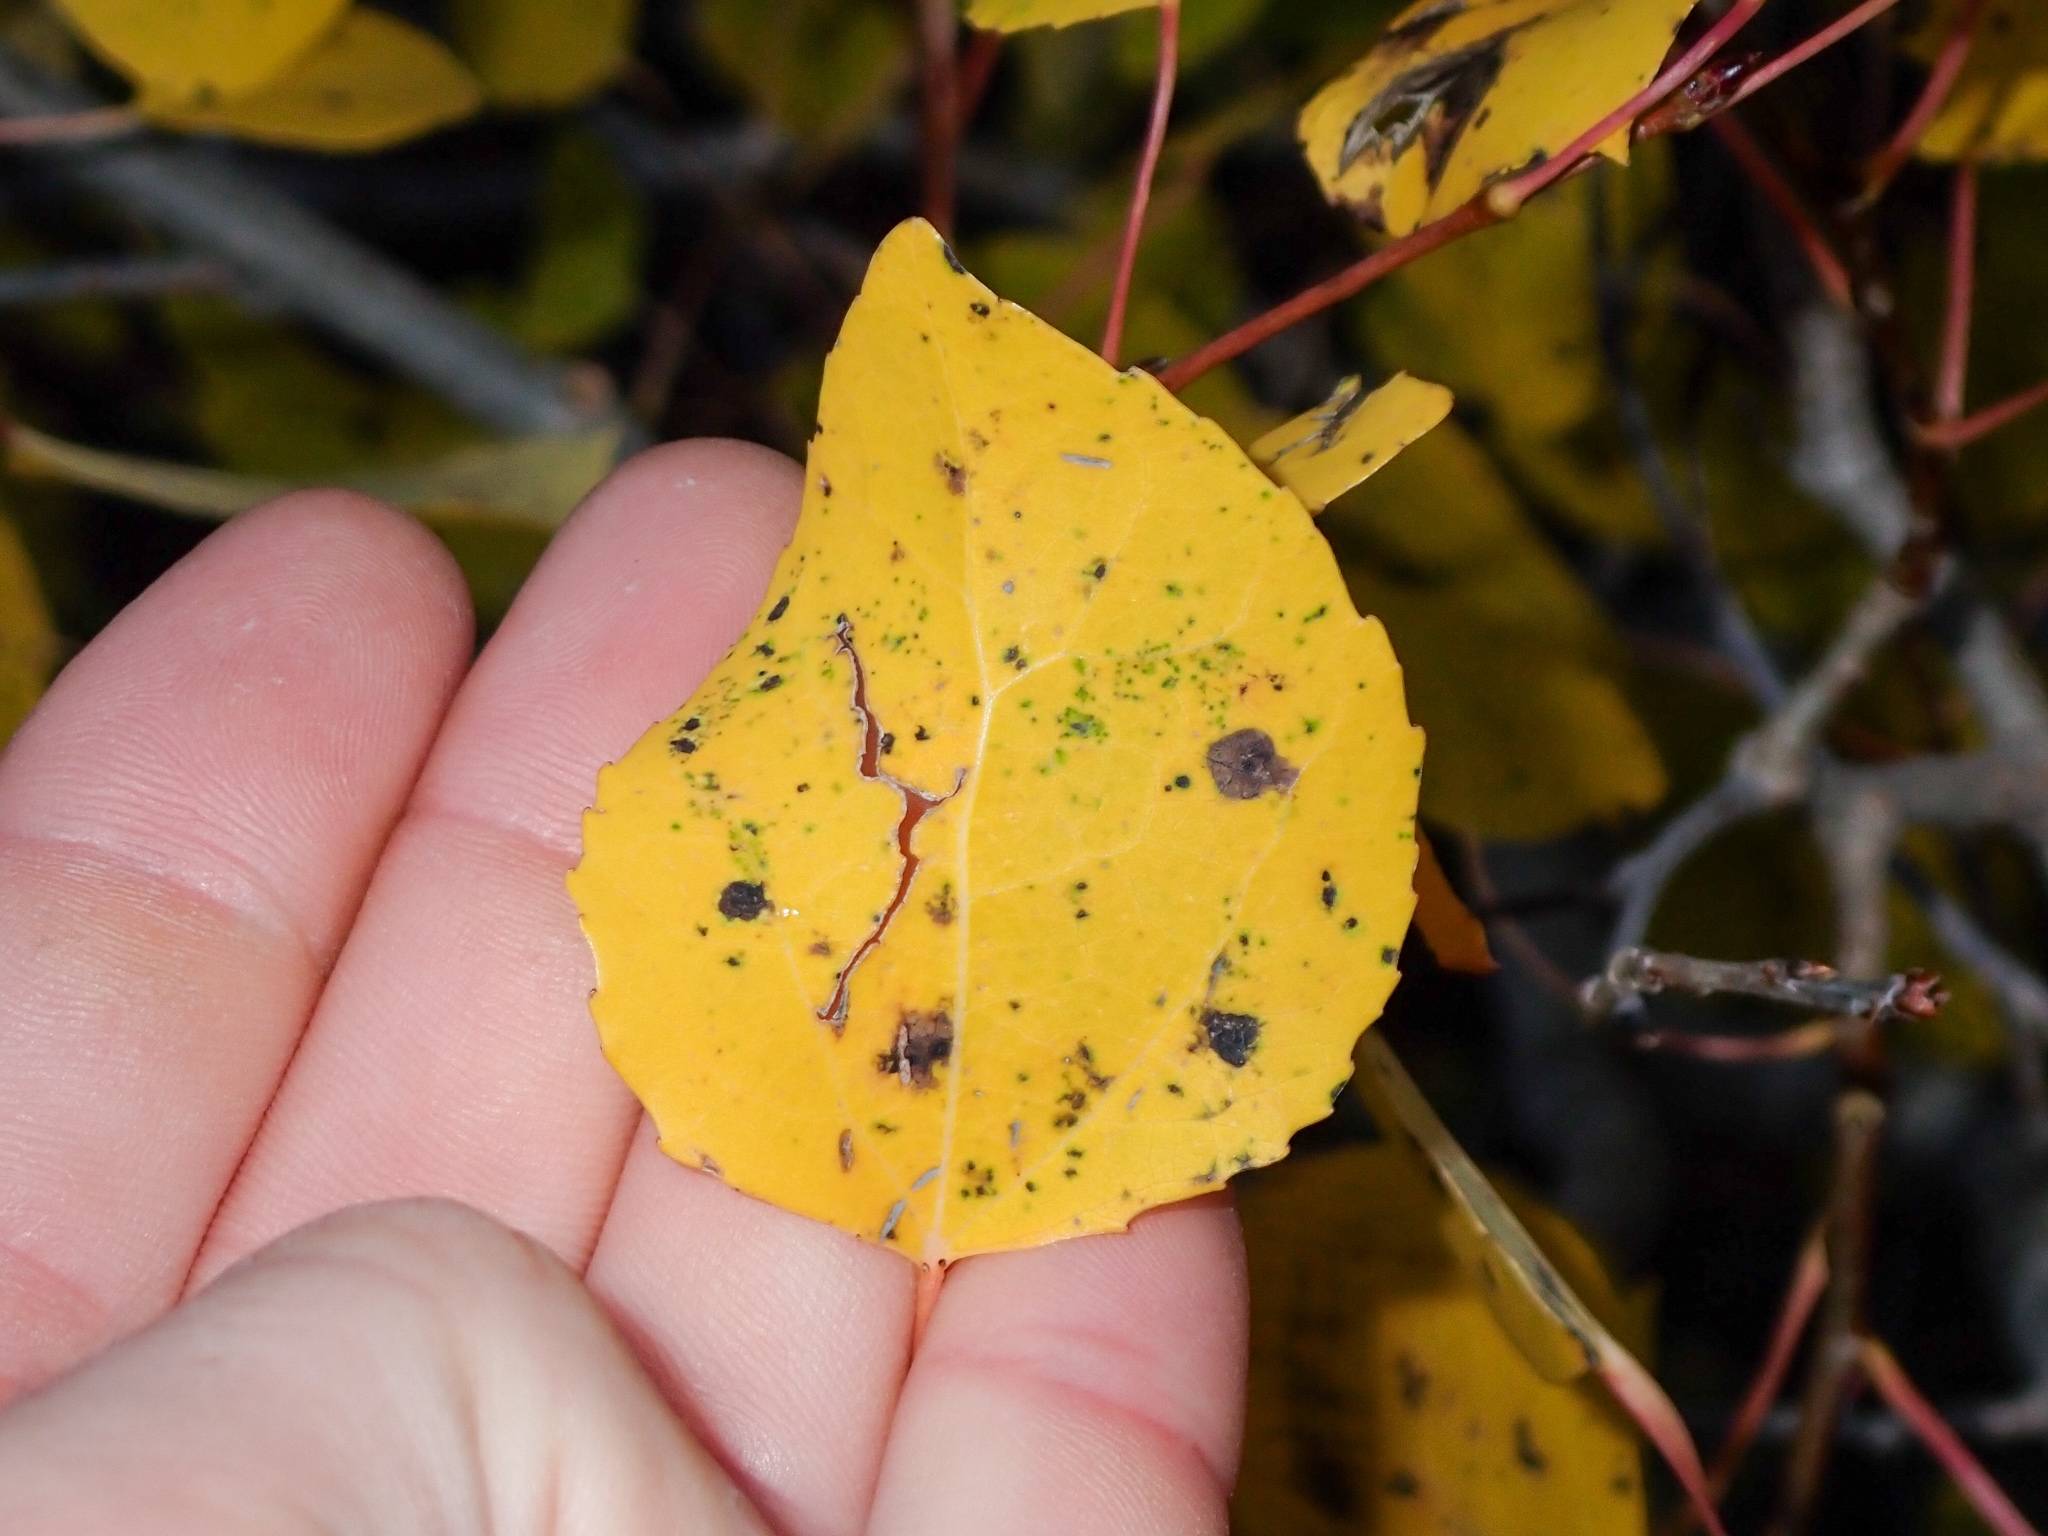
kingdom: Plantae
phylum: Tracheophyta
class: Magnoliopsida
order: Malpighiales
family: Salicaceae
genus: Populus
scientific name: Populus tremuloides
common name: Quaking aspen
